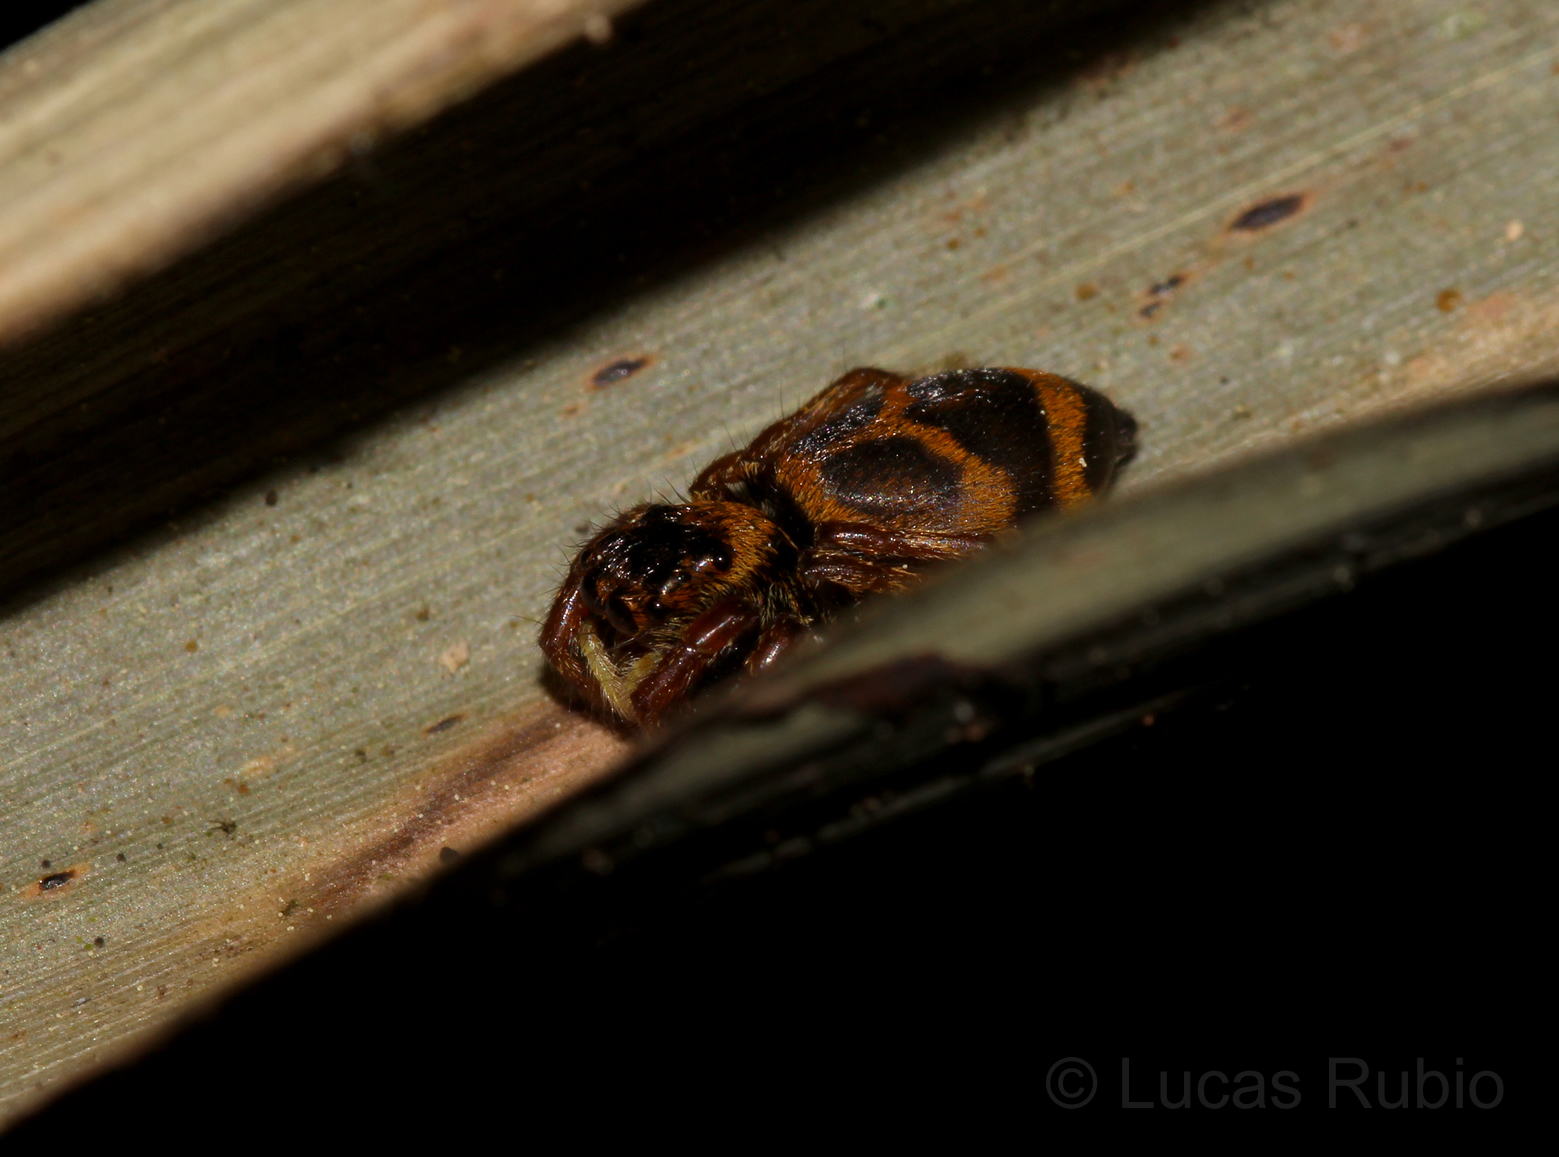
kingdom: Animalia
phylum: Arthropoda
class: Arachnida
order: Araneae
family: Salticidae
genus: Phiale
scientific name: Phiale tristis
